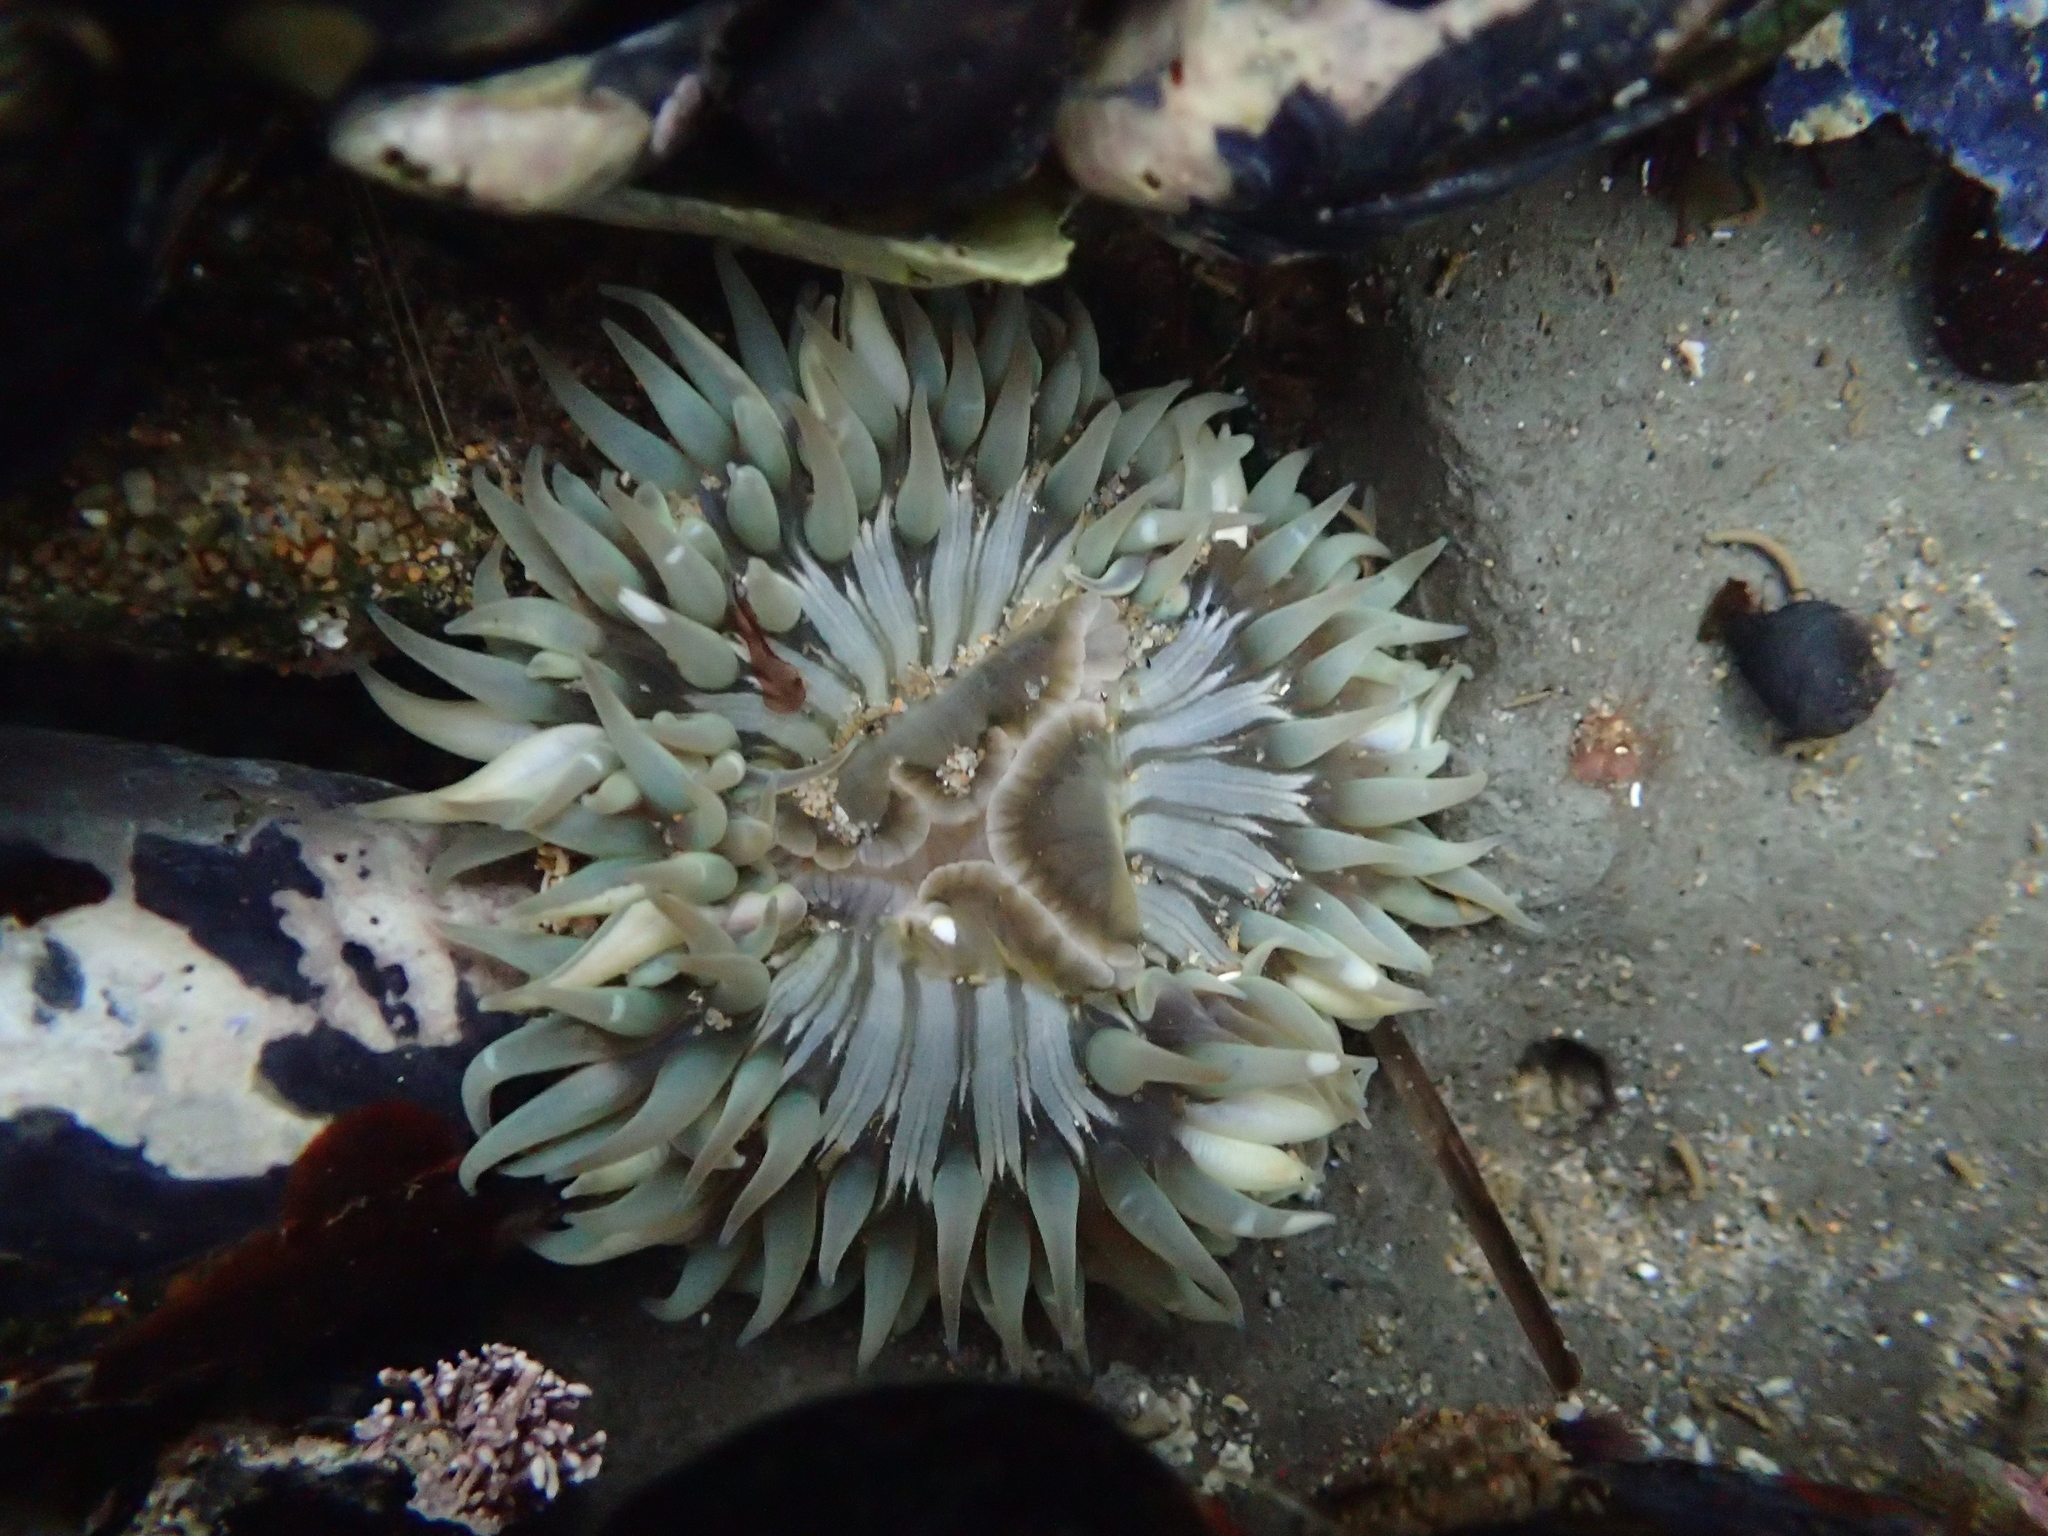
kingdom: Animalia
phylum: Cnidaria
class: Anthozoa
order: Actiniaria
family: Actiniidae
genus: Anthopleura
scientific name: Anthopleura sola
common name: Sun anemone
